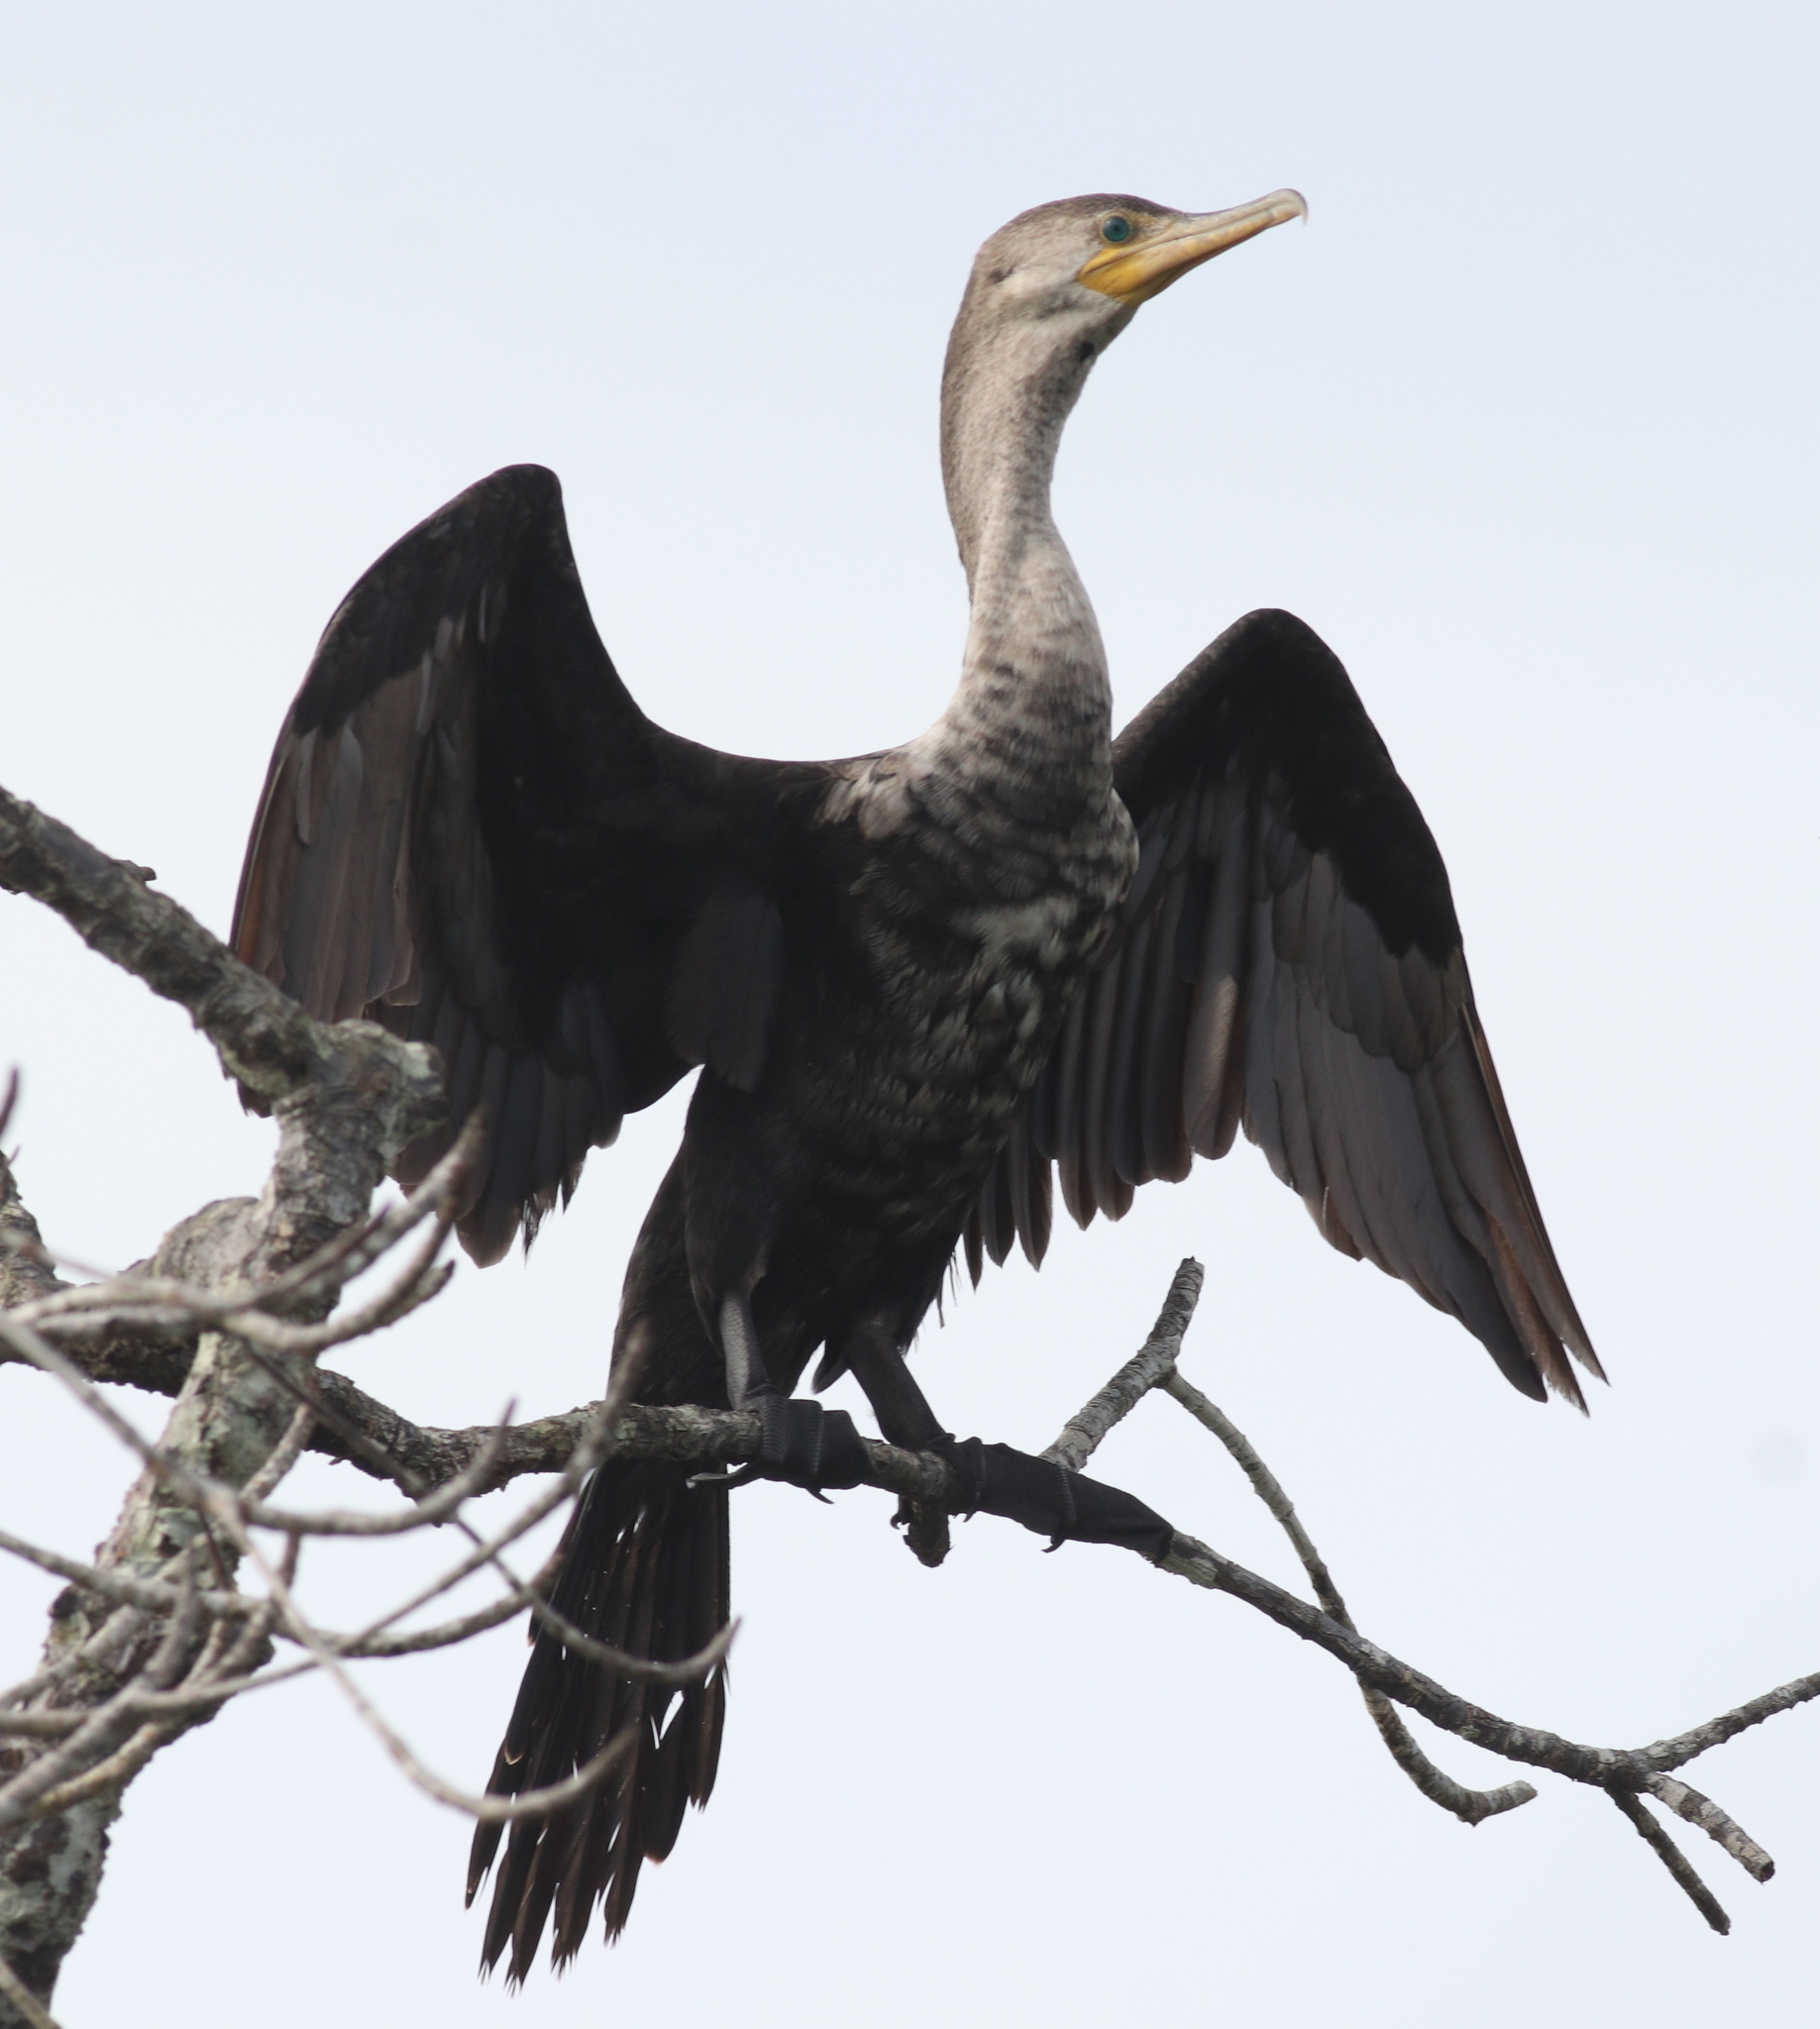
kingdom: Animalia
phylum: Chordata
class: Aves
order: Suliformes
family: Phalacrocoracidae
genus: Phalacrocorax
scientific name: Phalacrocorax brasilianus
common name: Neotropic cormorant
